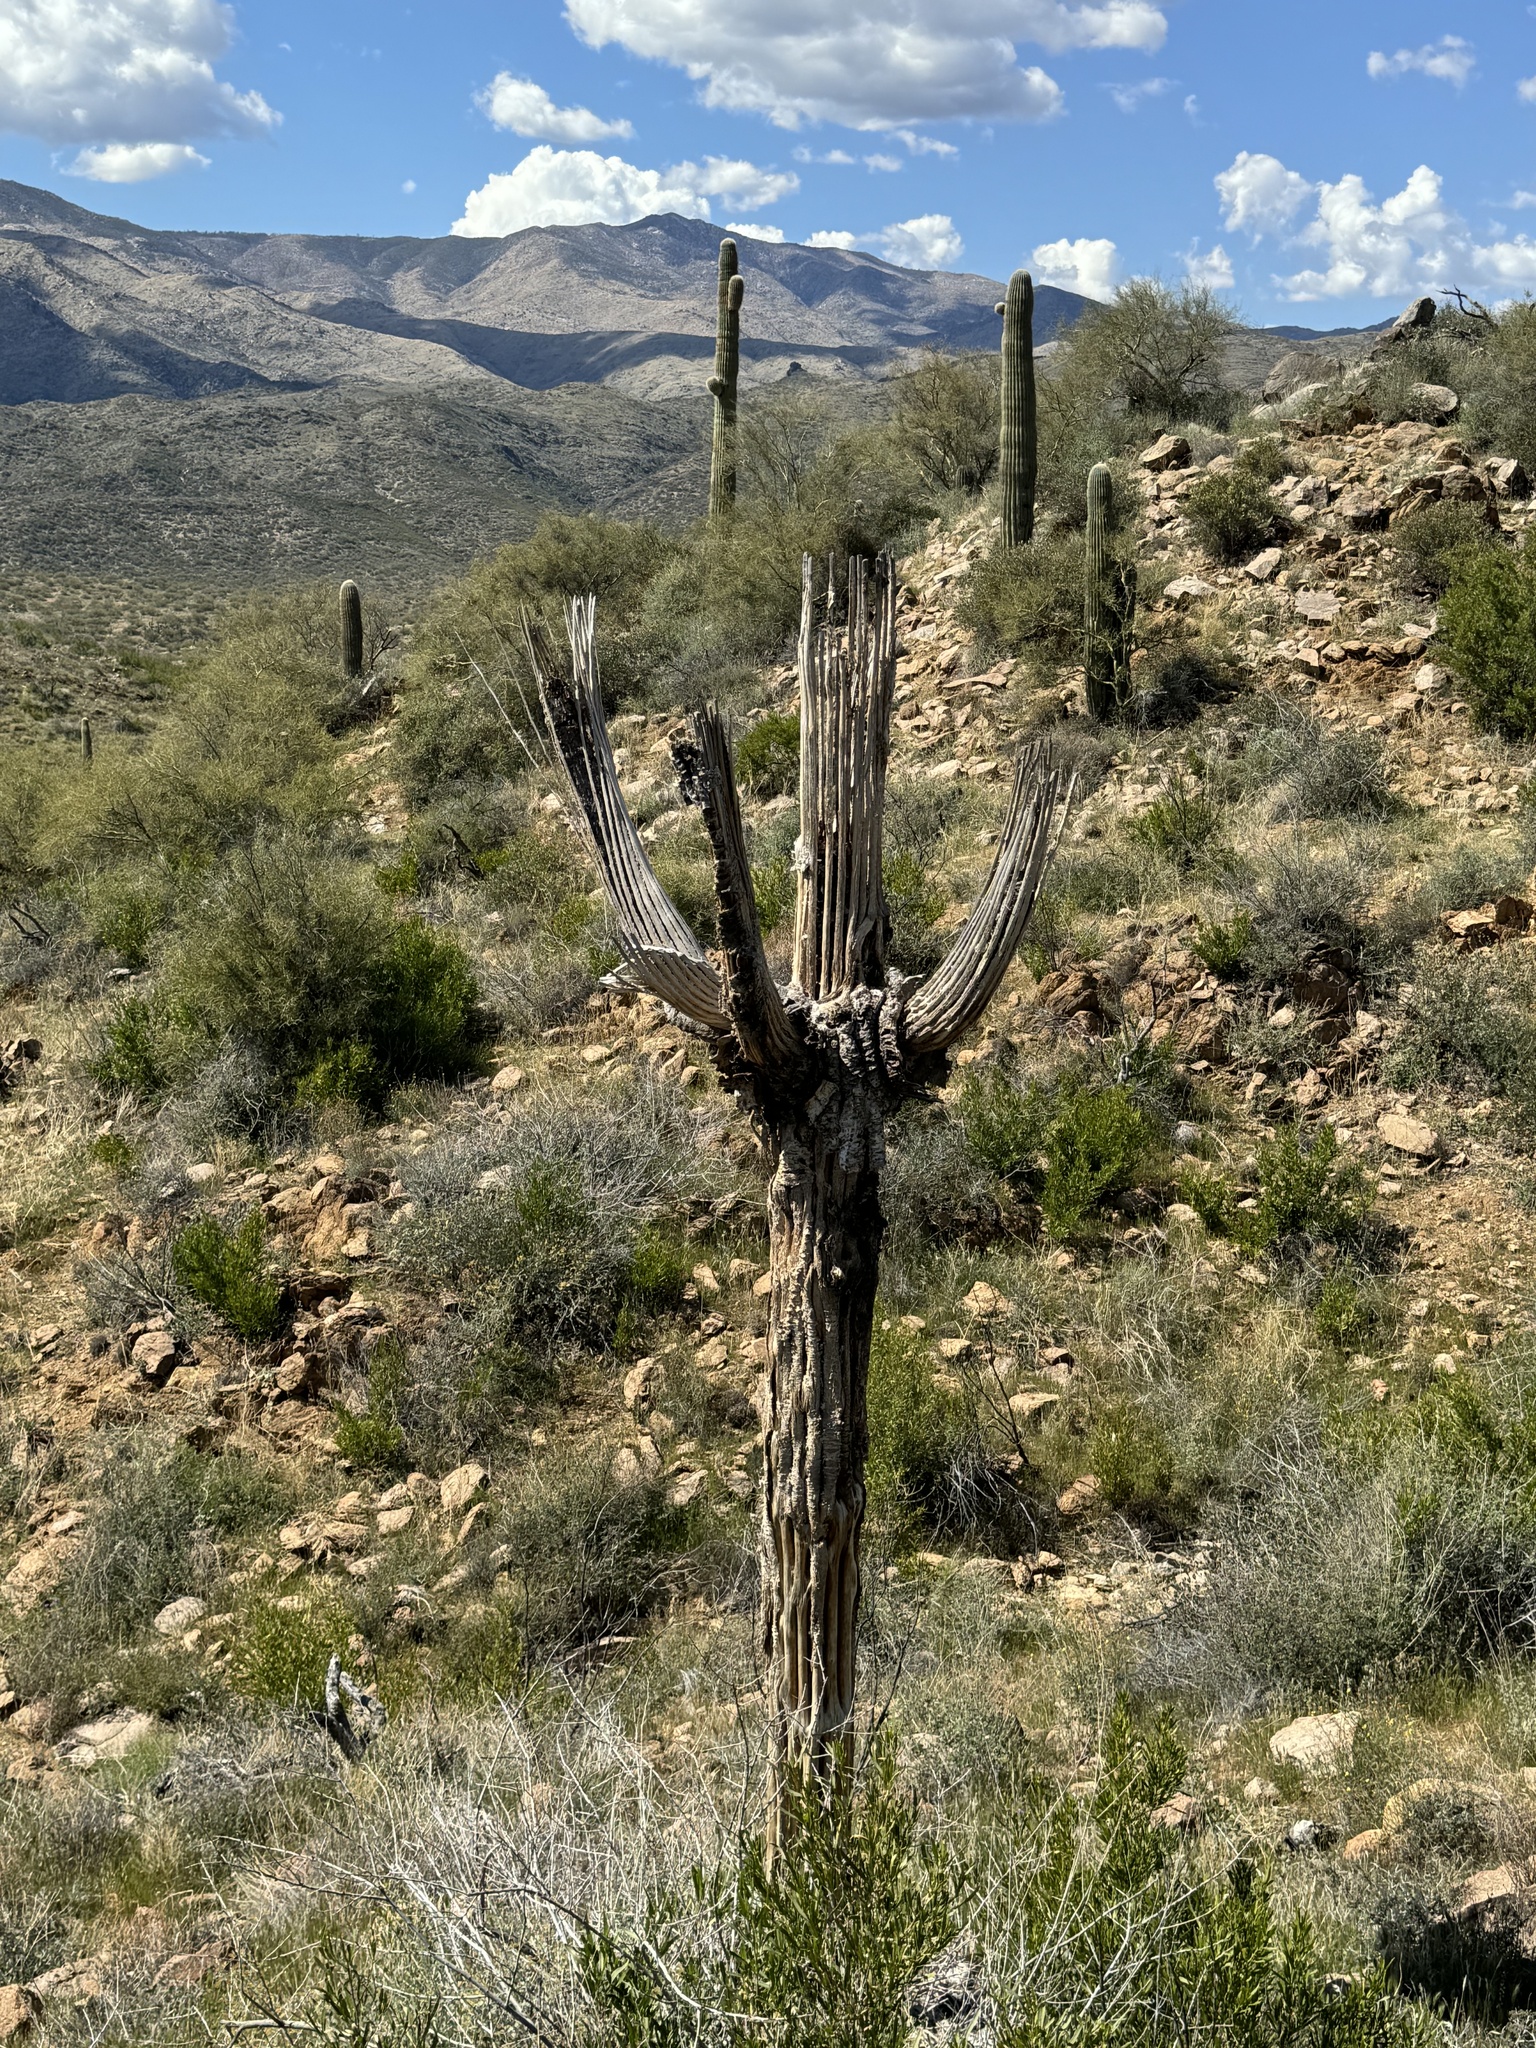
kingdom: Plantae
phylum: Tracheophyta
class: Magnoliopsida
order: Caryophyllales
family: Cactaceae
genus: Carnegiea
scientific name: Carnegiea gigantea
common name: Saguaro
